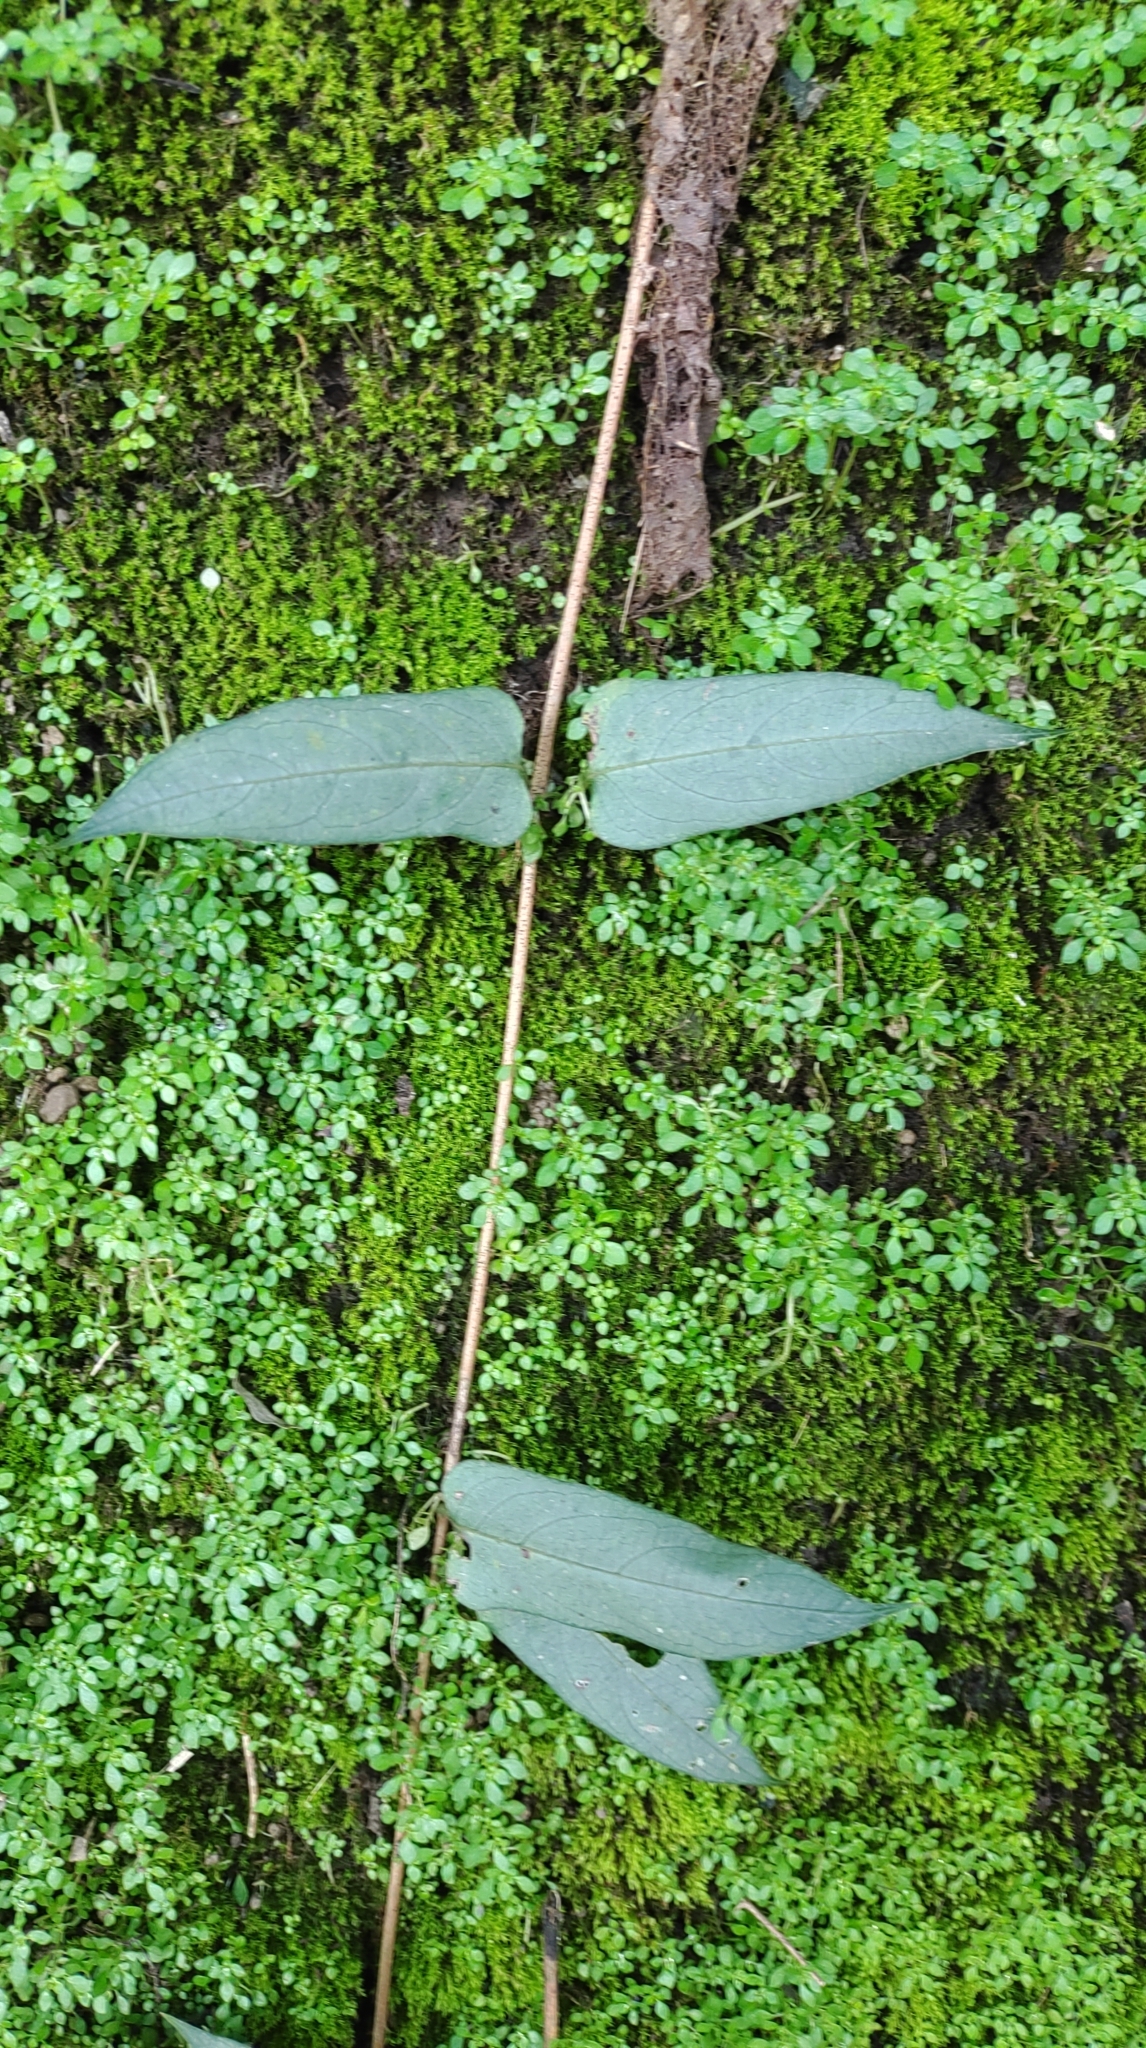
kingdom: Plantae
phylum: Tracheophyta
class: Magnoliopsida
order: Gentianales
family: Rubiaceae
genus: Paederia
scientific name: Paederia foetida
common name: Stinkvine
